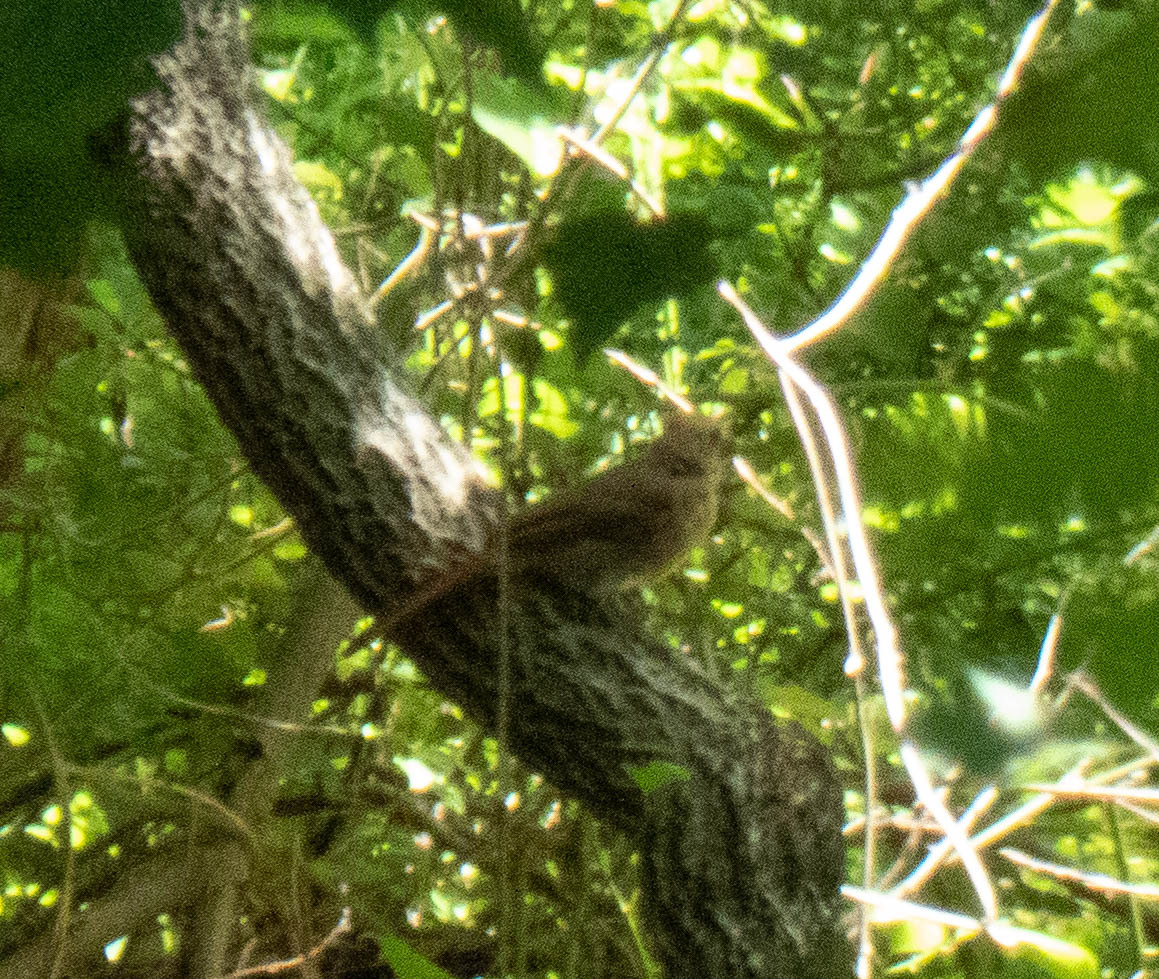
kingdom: Animalia
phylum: Chordata
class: Aves
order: Passeriformes
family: Cardinalidae
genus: Cardinalis
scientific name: Cardinalis cardinalis
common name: Northern cardinal
